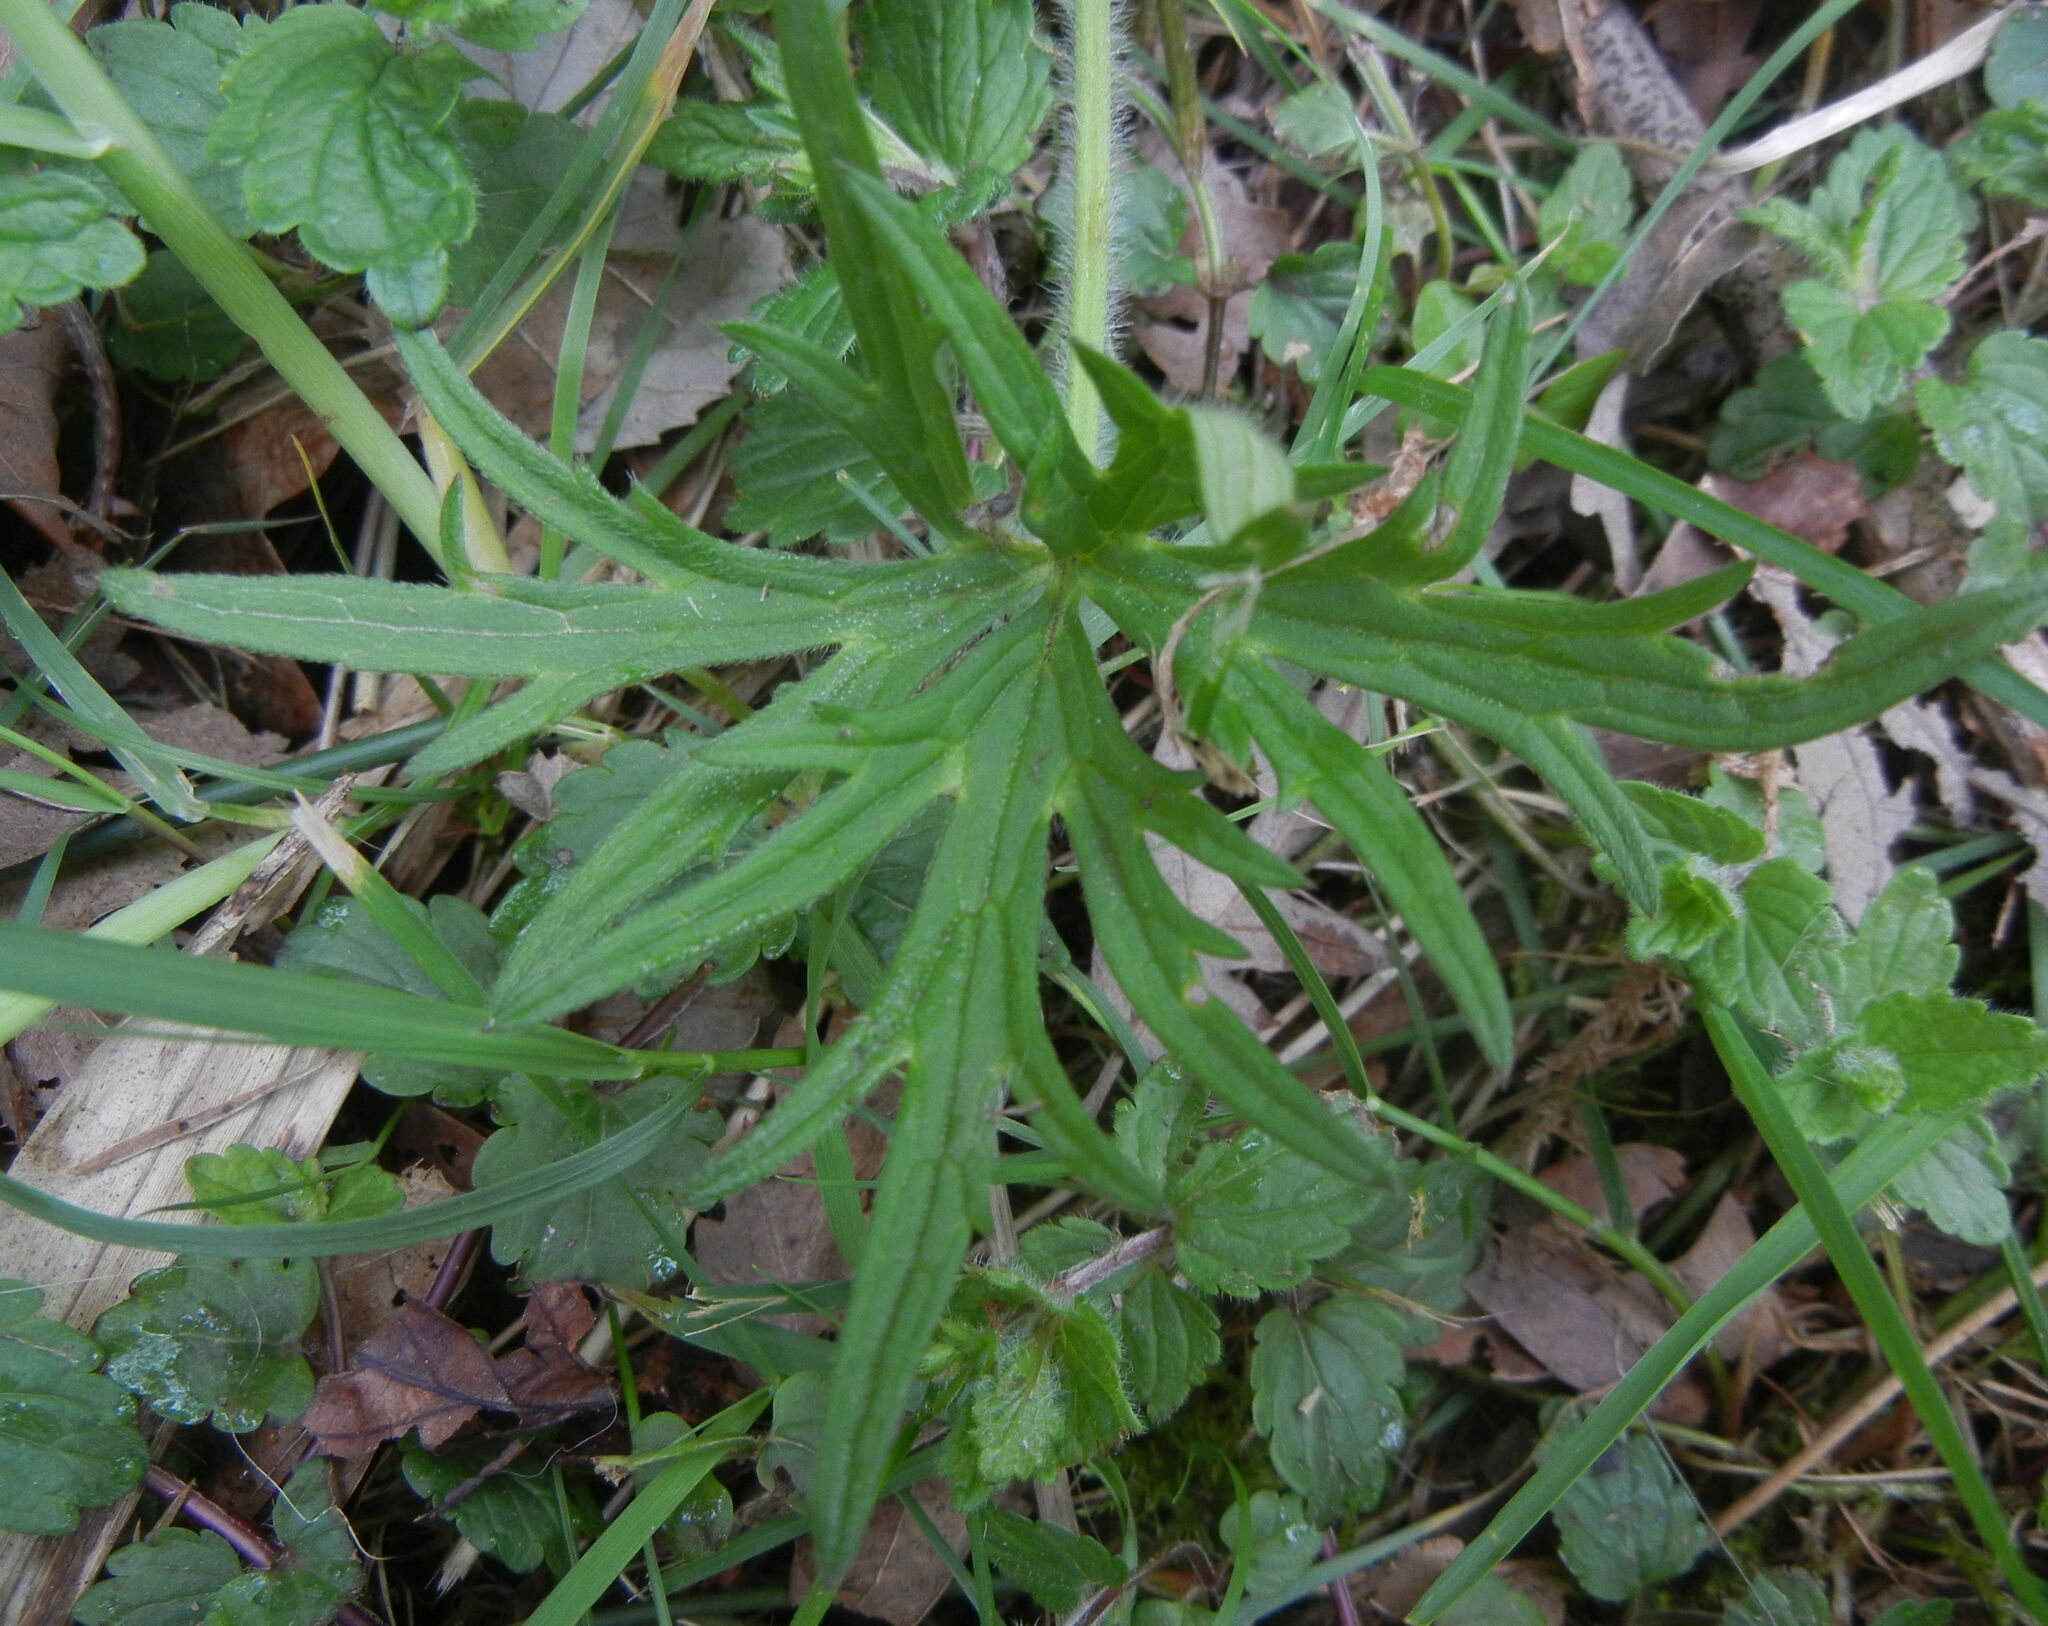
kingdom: Plantae
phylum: Tracheophyta
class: Magnoliopsida
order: Ranunculales
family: Ranunculaceae
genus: Ranunculus
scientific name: Ranunculus acris
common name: Meadow buttercup
